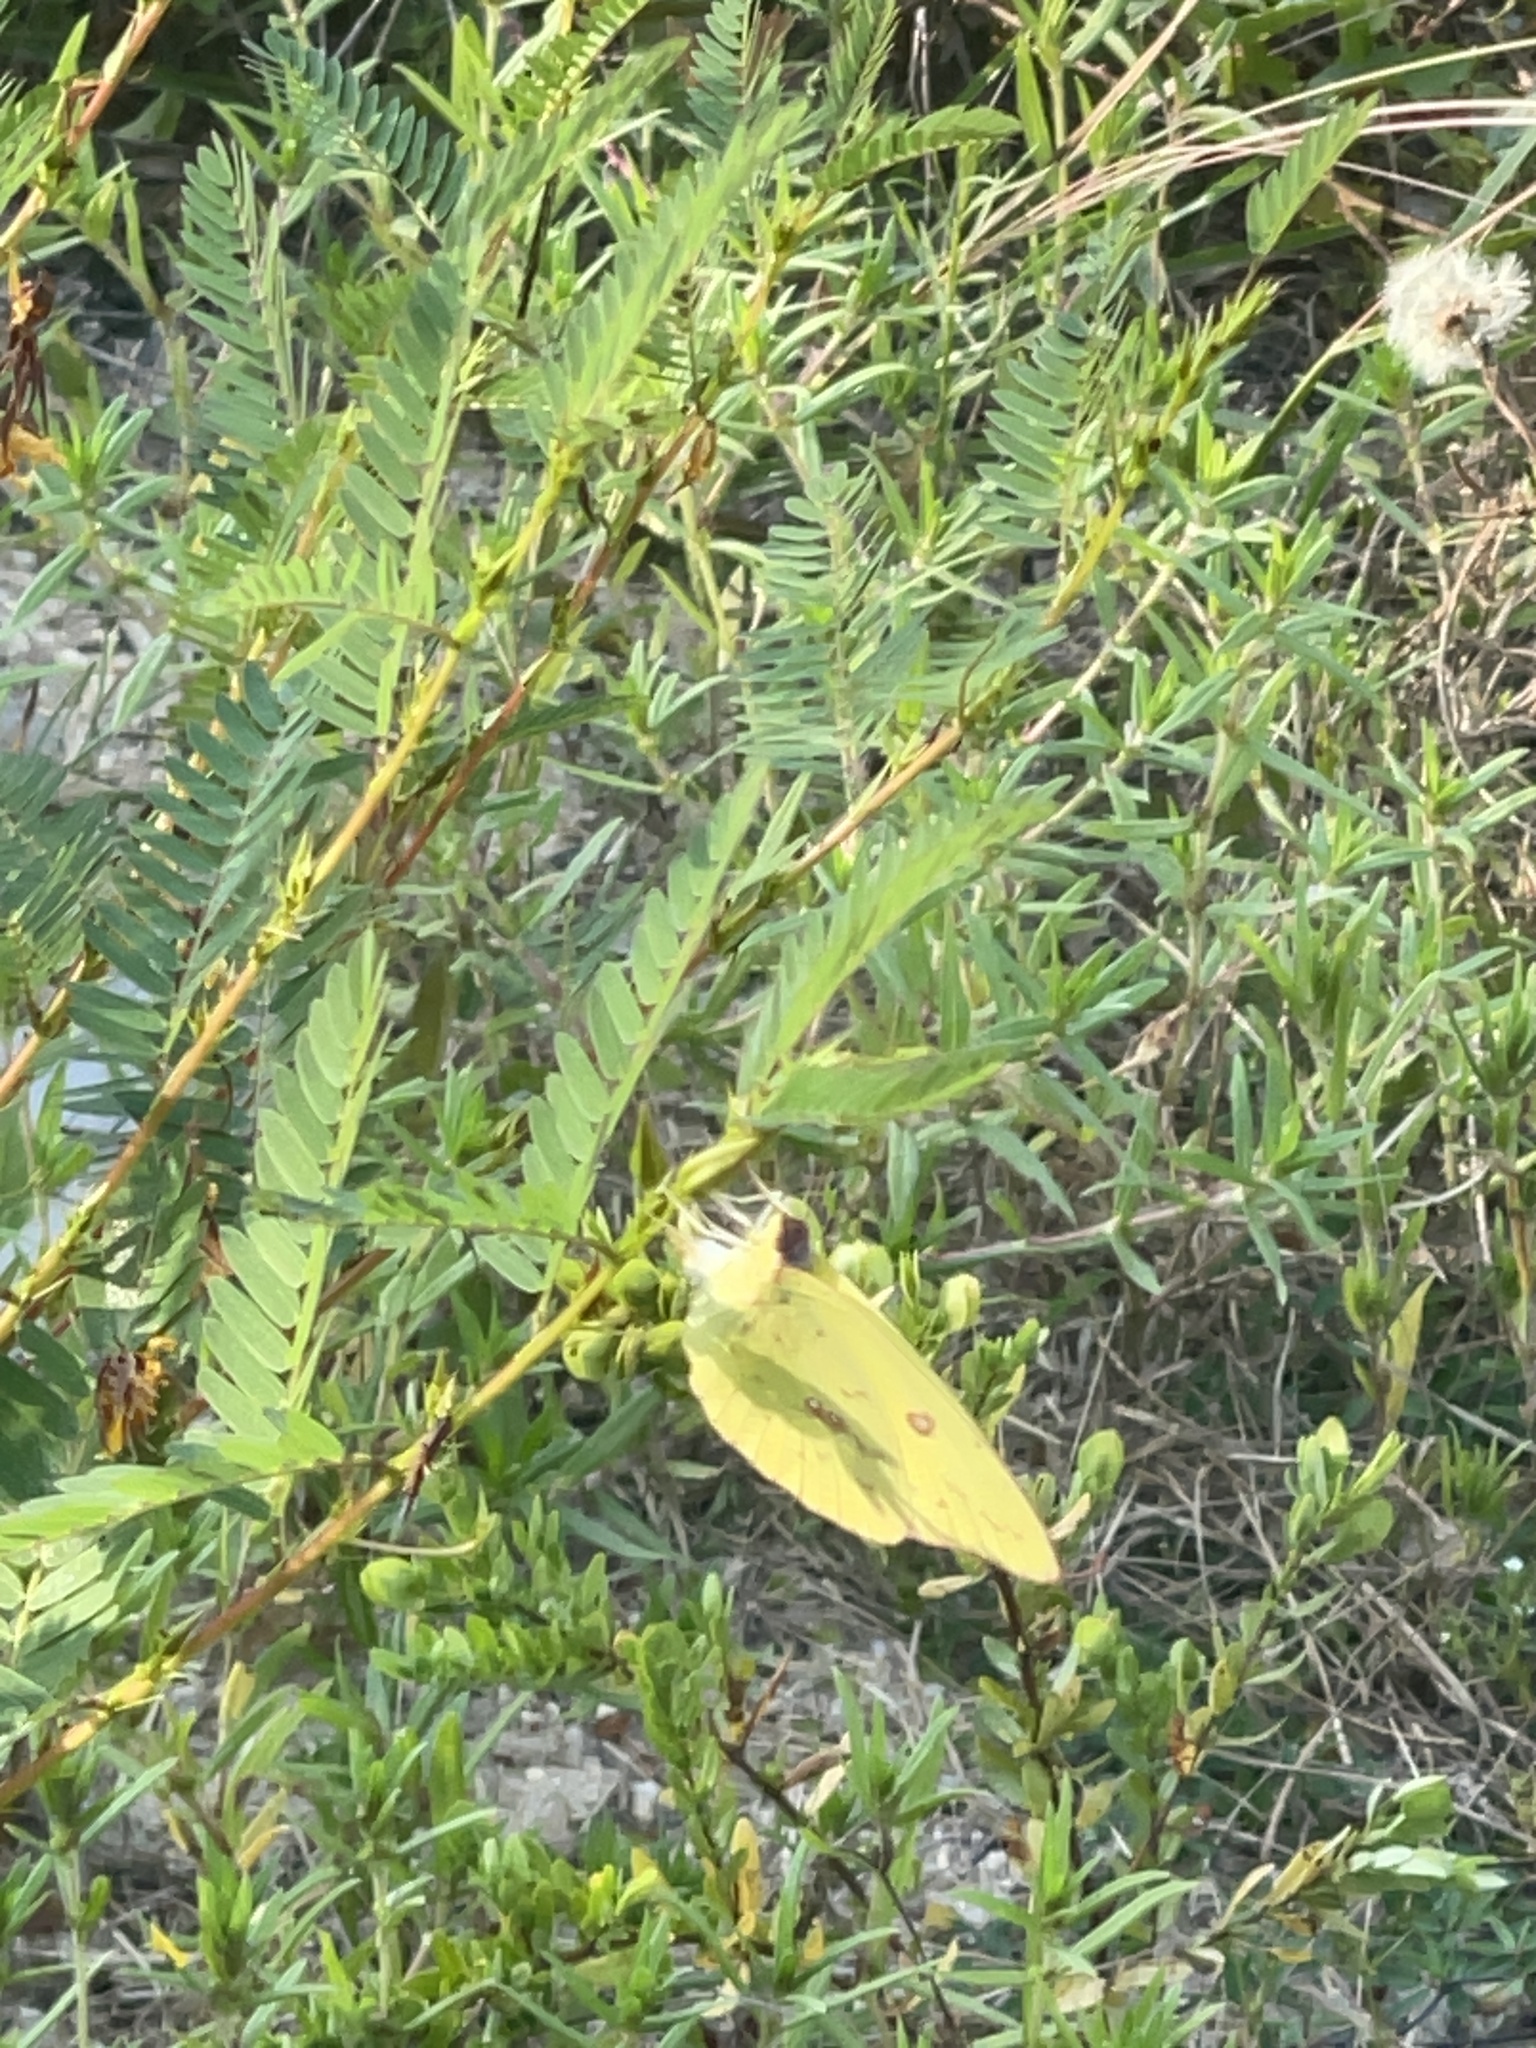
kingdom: Animalia
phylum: Arthropoda
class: Insecta
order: Lepidoptera
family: Pieridae
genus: Phoebis
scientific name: Phoebis sennae
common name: Cloudless sulphur
